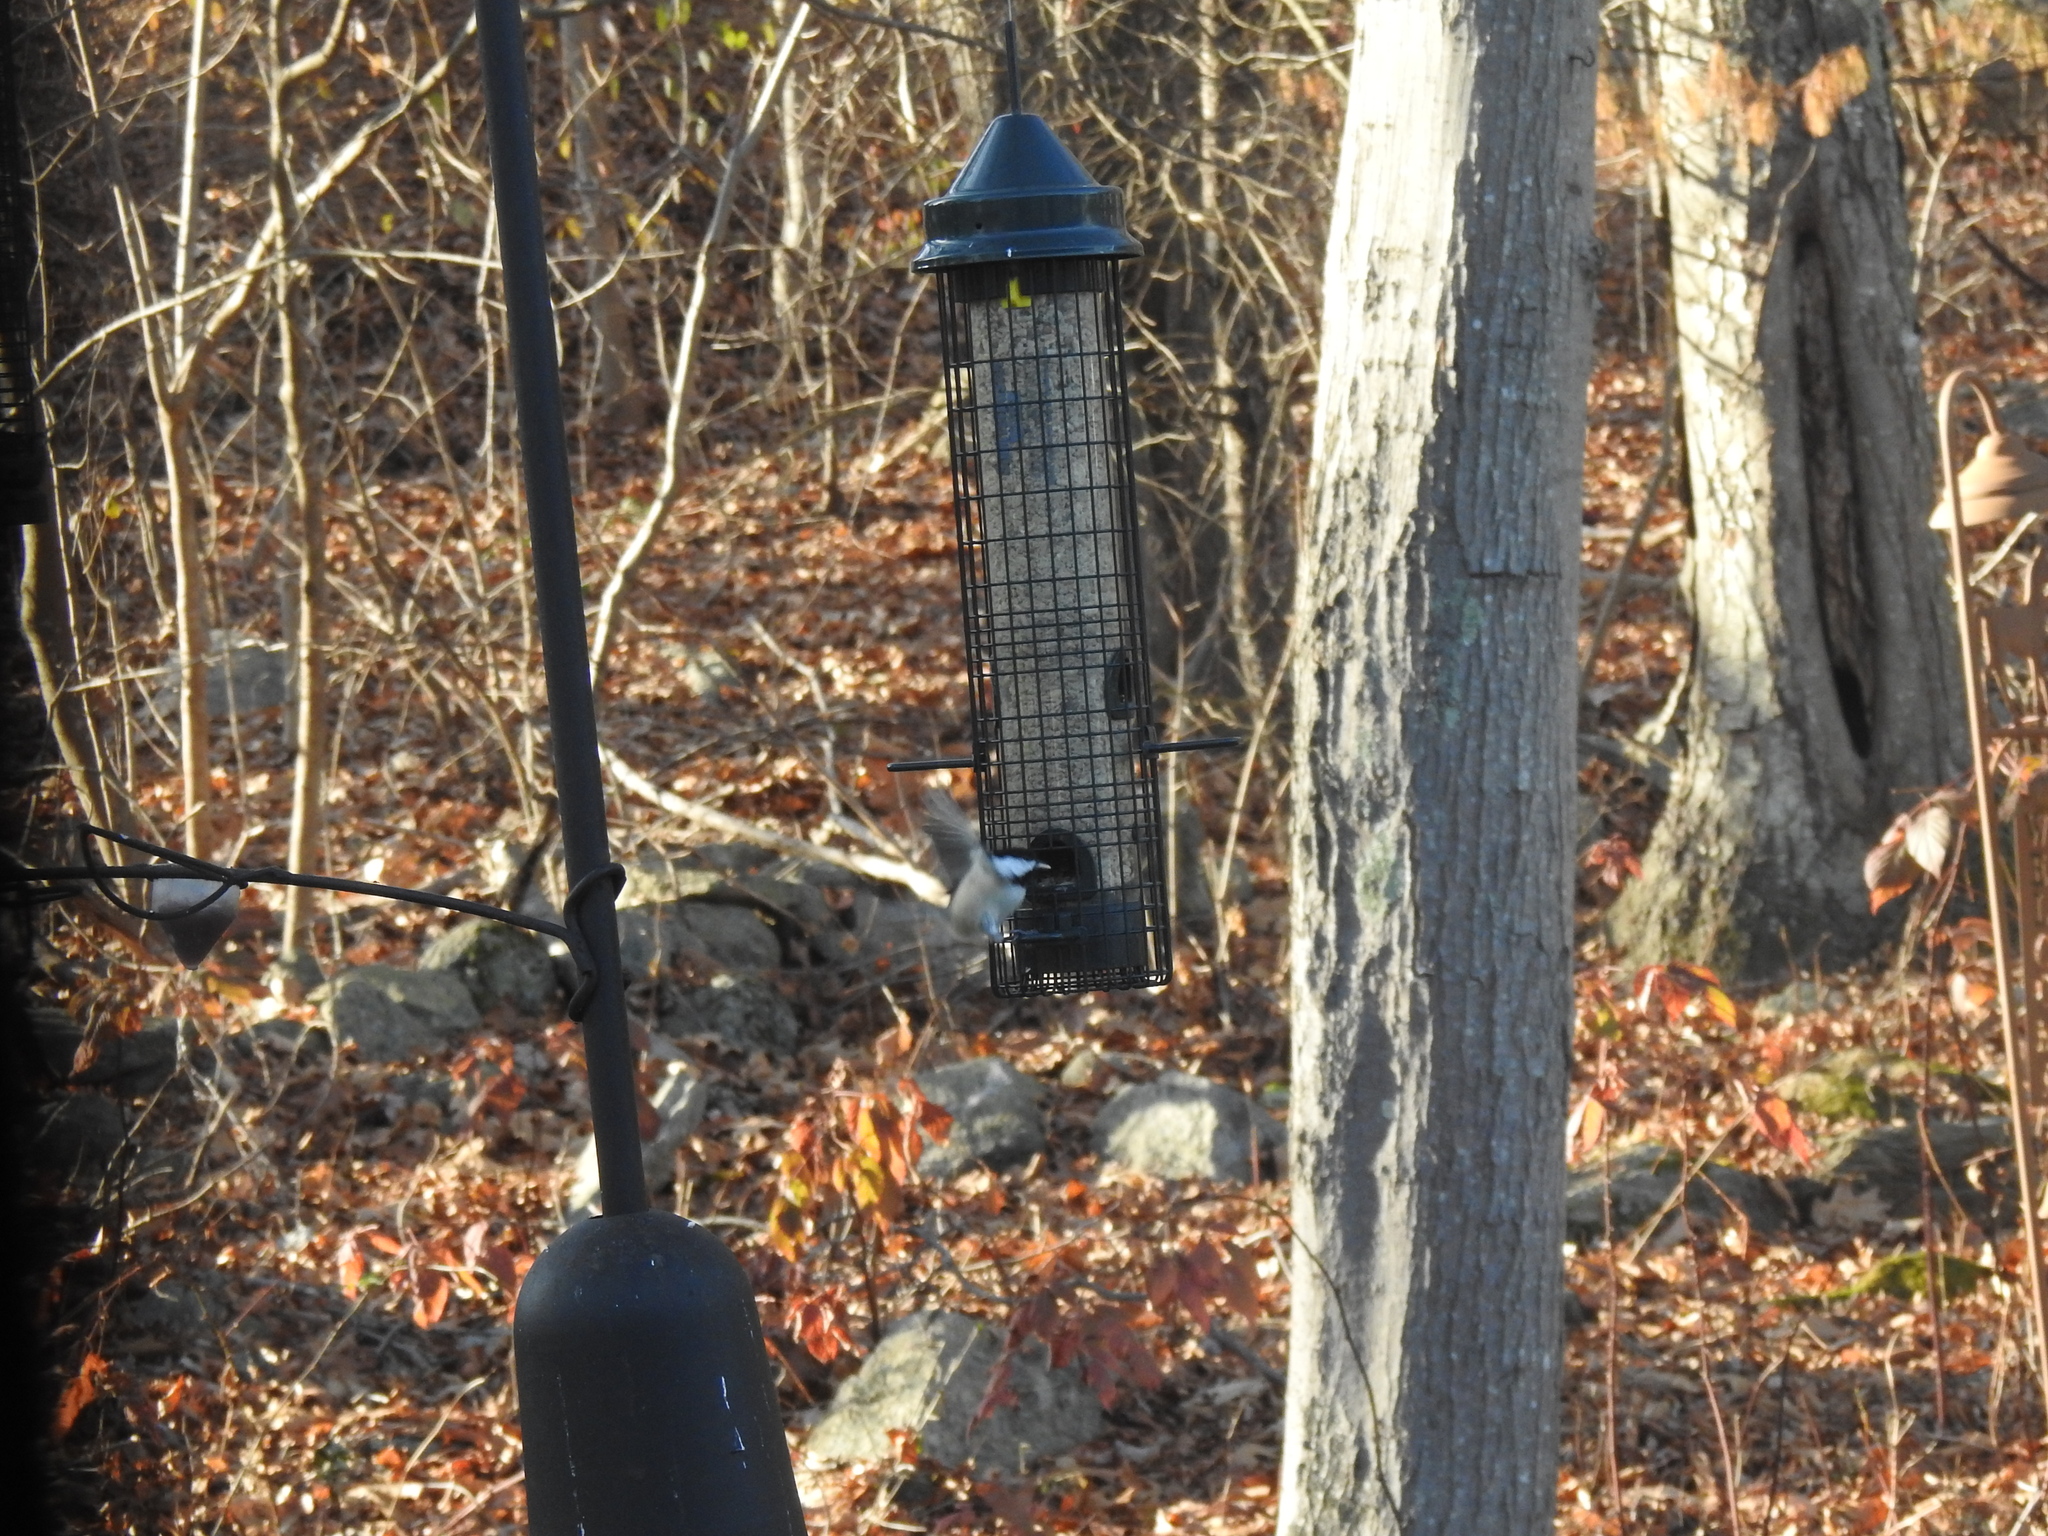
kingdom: Animalia
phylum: Chordata
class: Aves
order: Passeriformes
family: Paridae
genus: Poecile
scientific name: Poecile atricapillus
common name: Black-capped chickadee
